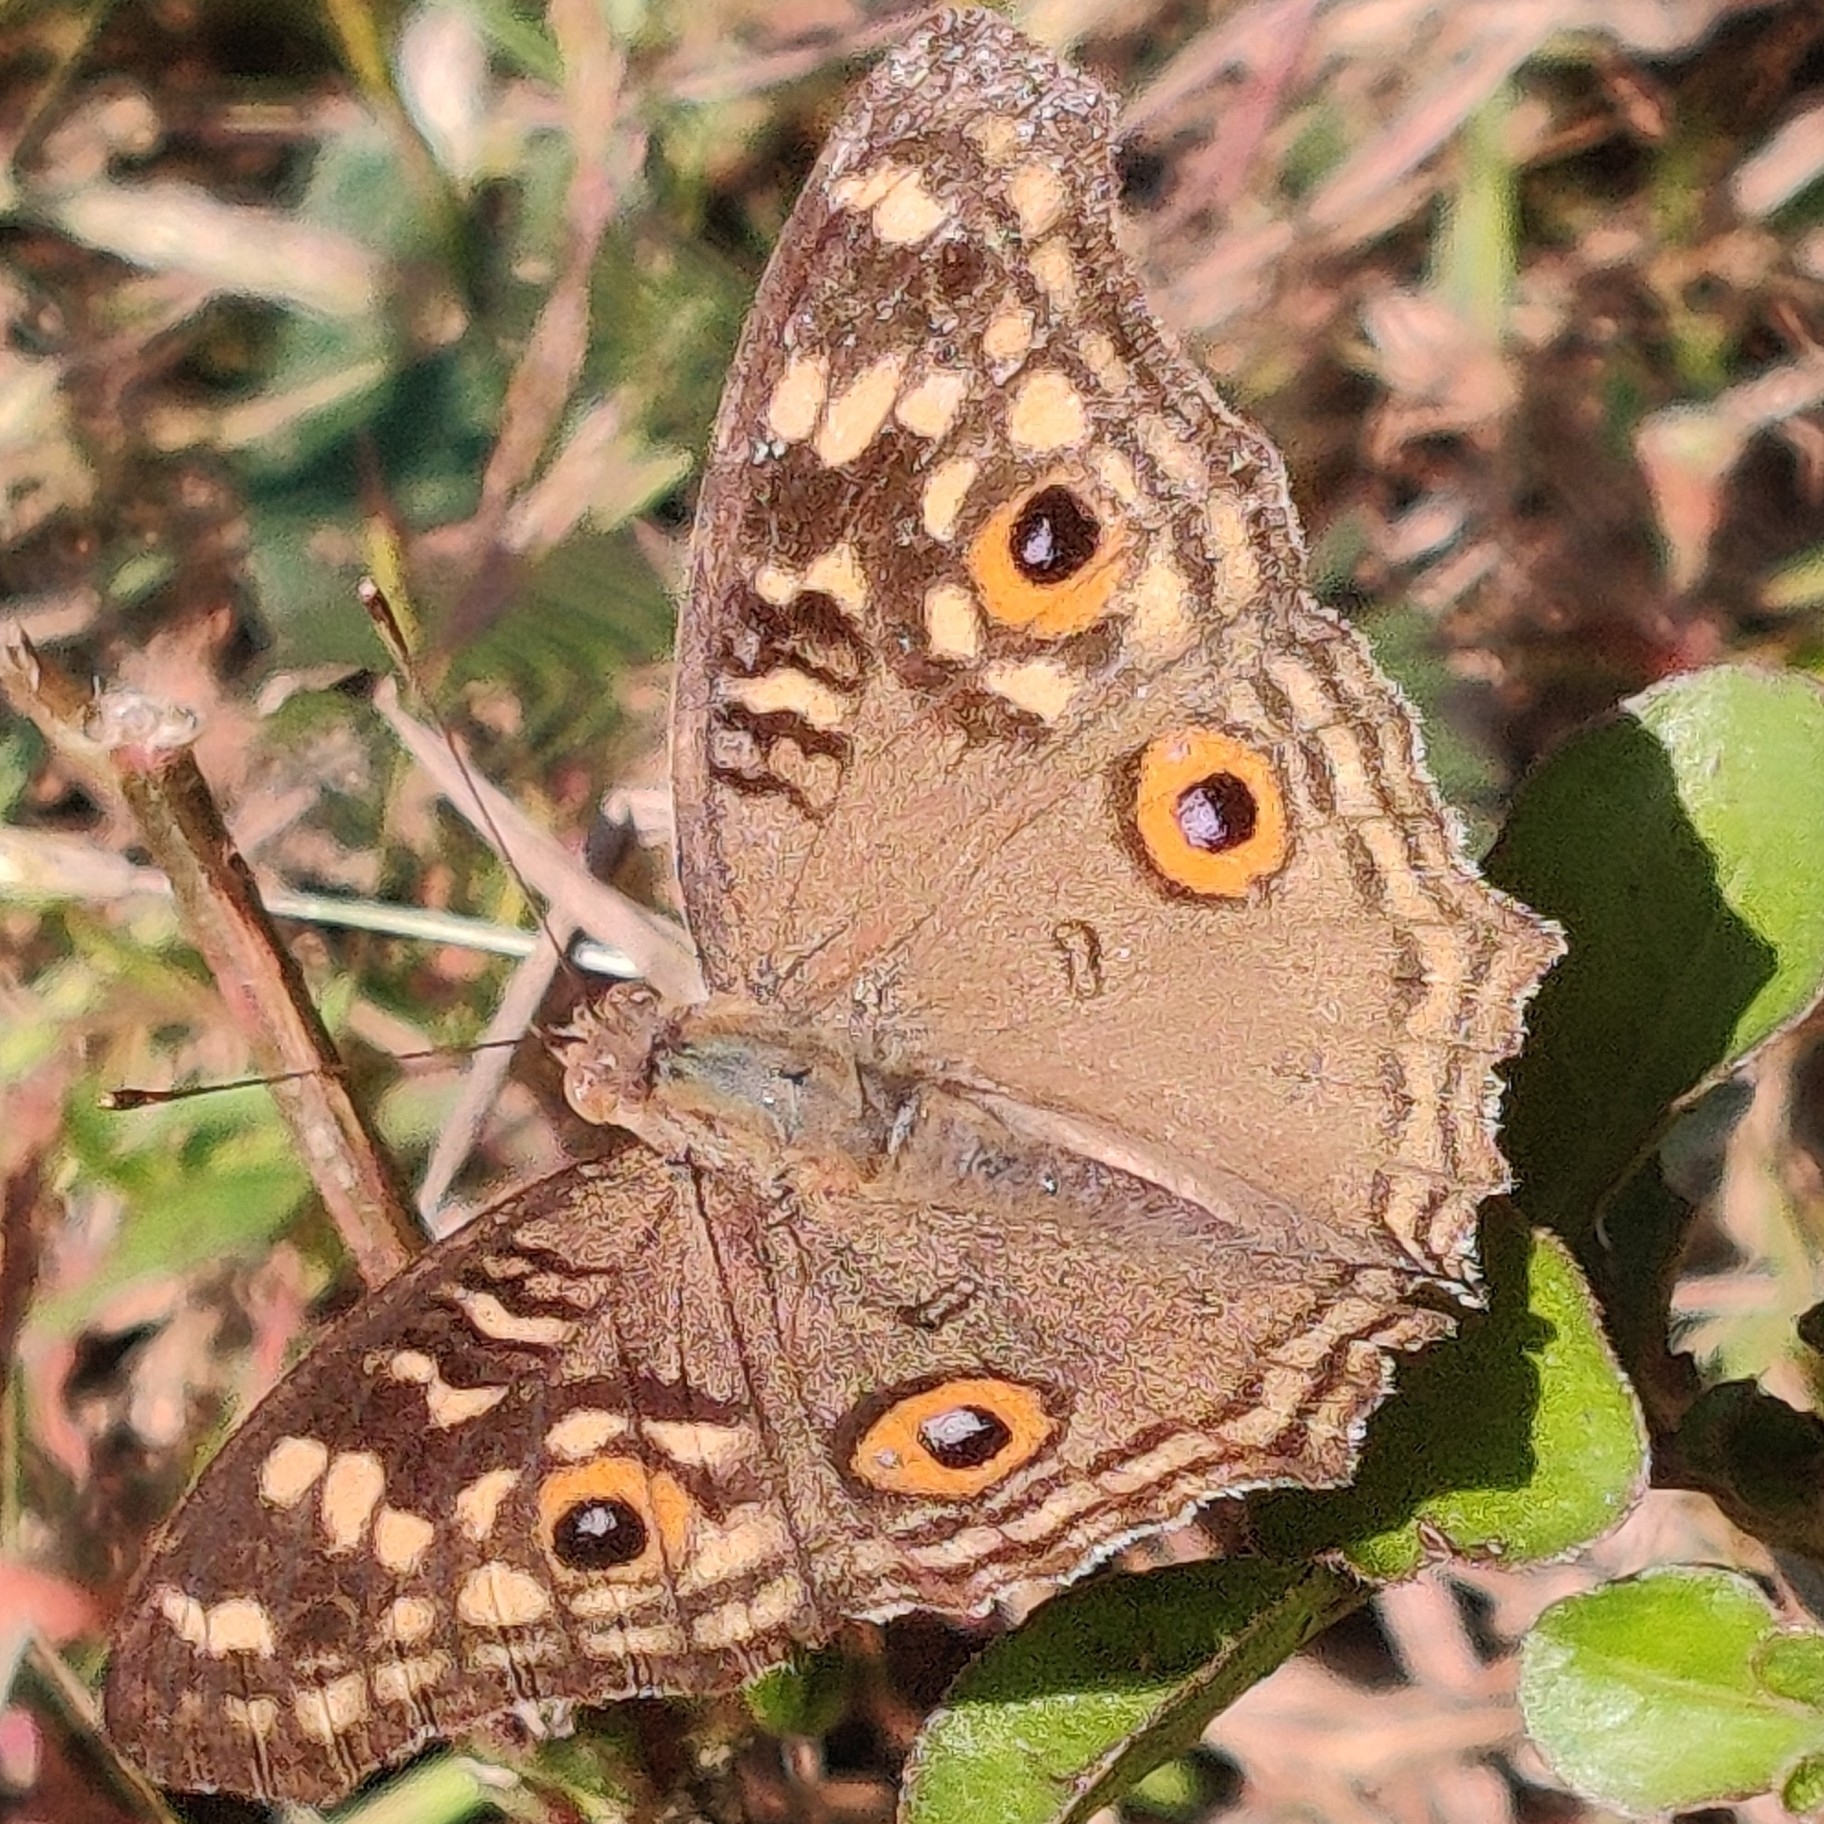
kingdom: Animalia
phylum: Arthropoda
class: Insecta
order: Lepidoptera
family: Nymphalidae
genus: Junonia
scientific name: Junonia lemonias
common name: Lemon pansy
